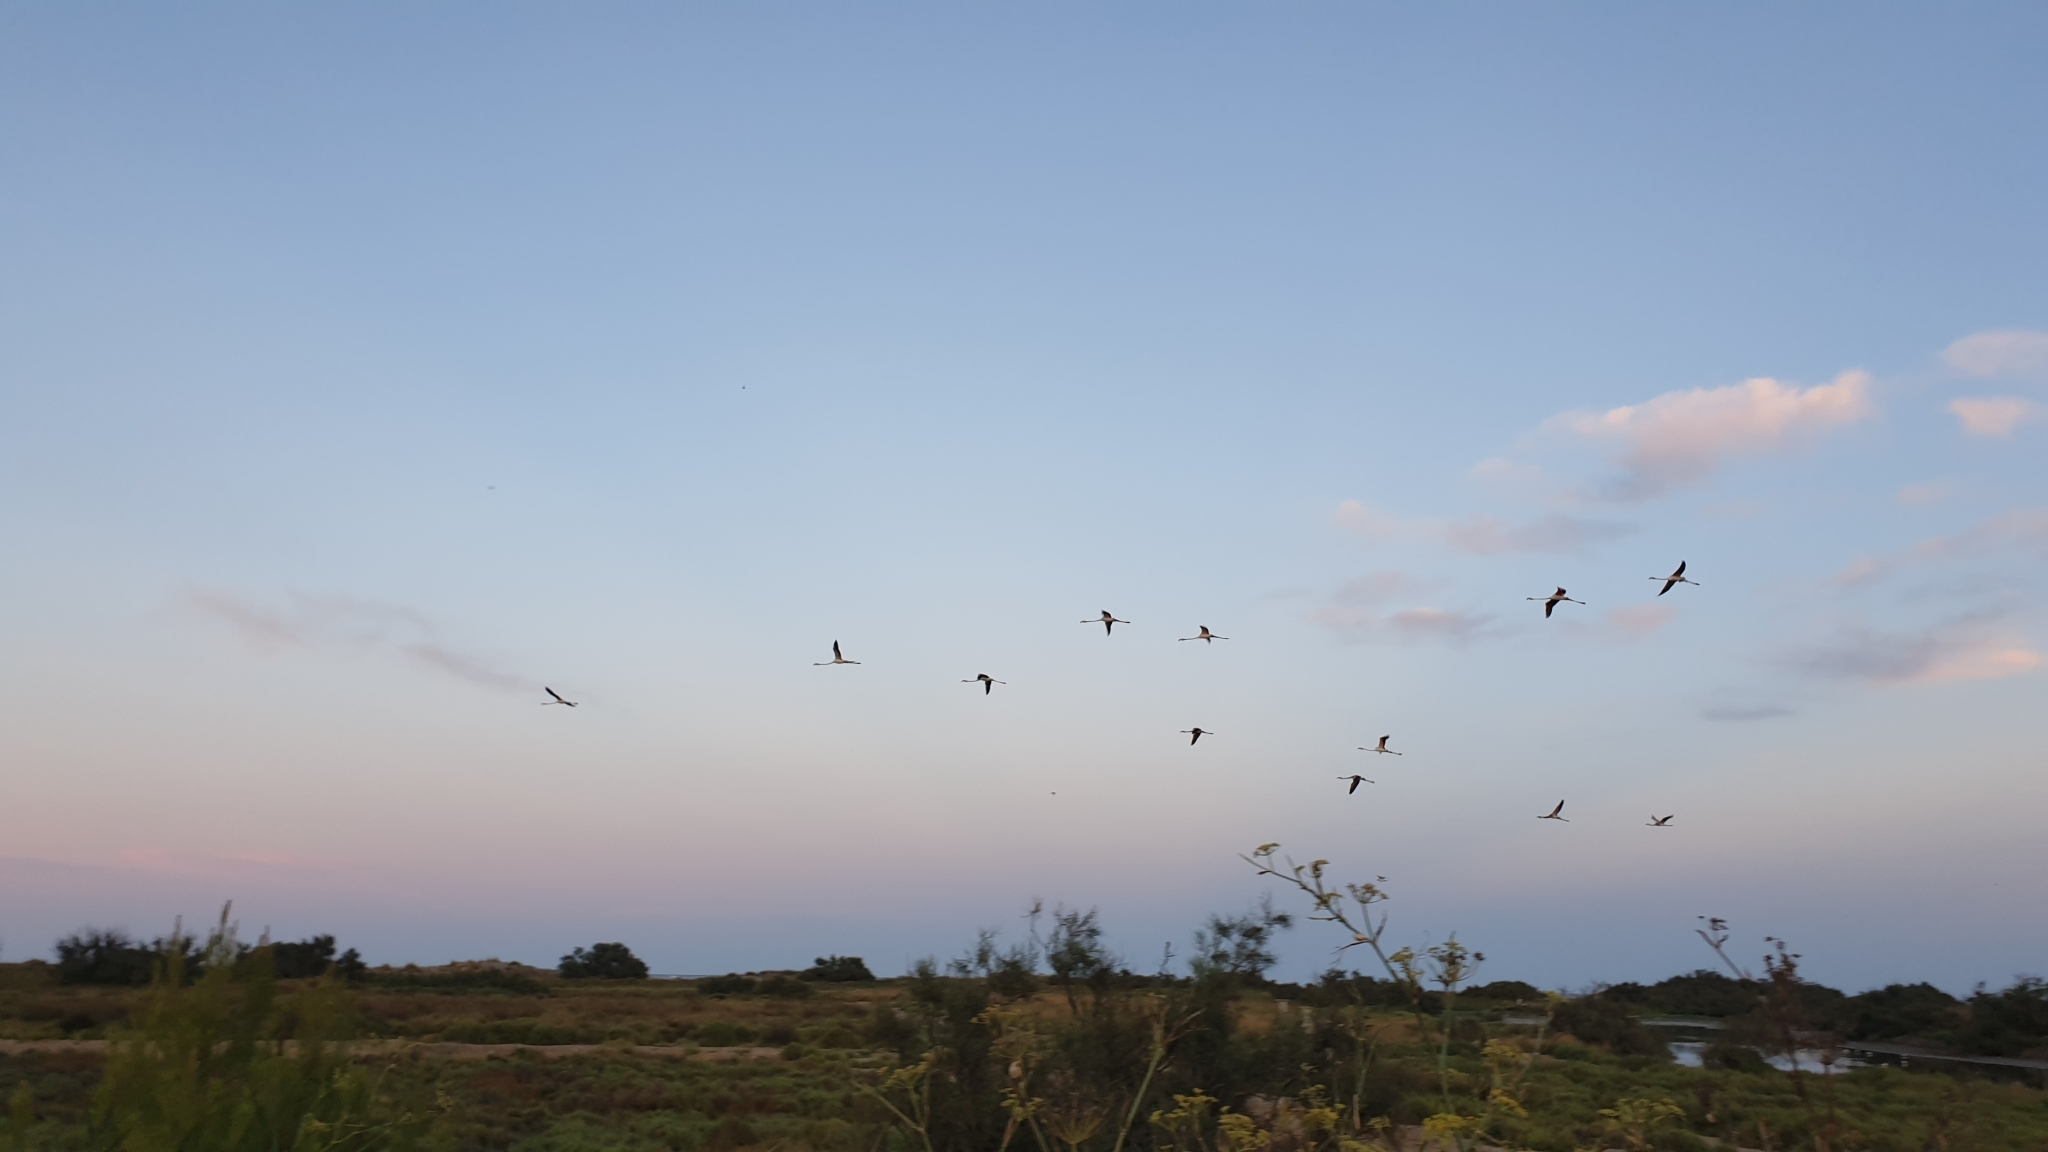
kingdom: Animalia
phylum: Chordata
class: Aves
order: Phoenicopteriformes
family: Phoenicopteridae
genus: Phoenicopterus
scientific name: Phoenicopterus roseus
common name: Greater flamingo
